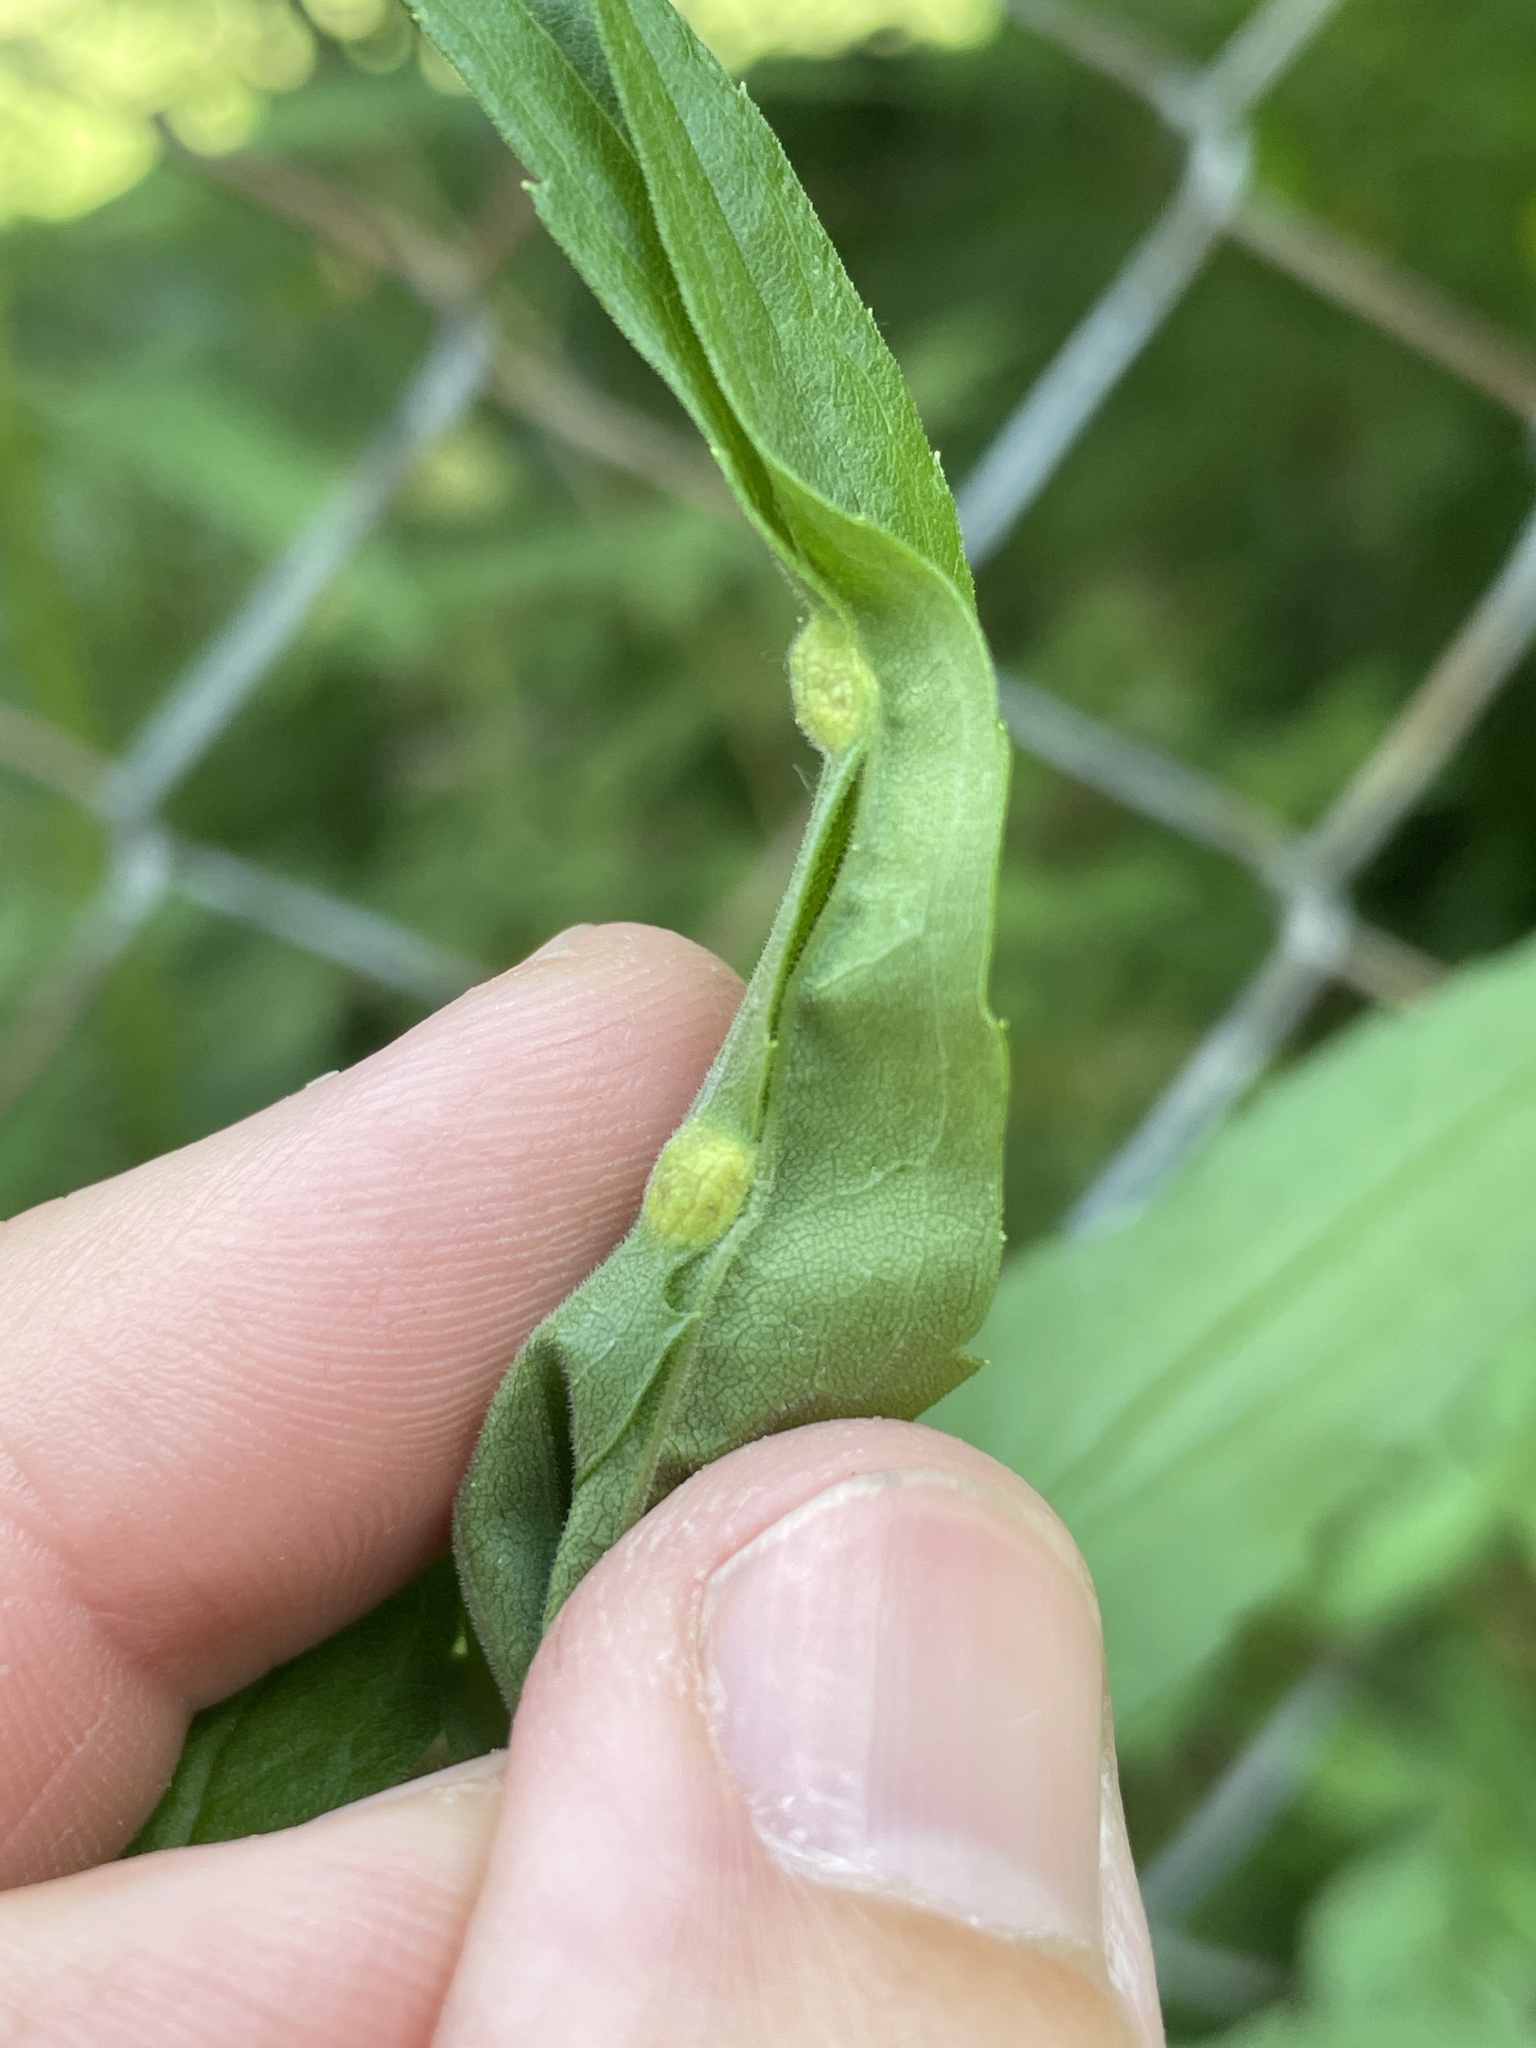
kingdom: Animalia
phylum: Arthropoda
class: Insecta
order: Diptera
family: Cecidomyiidae
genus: Asphondylia
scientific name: Asphondylia solidaginis
